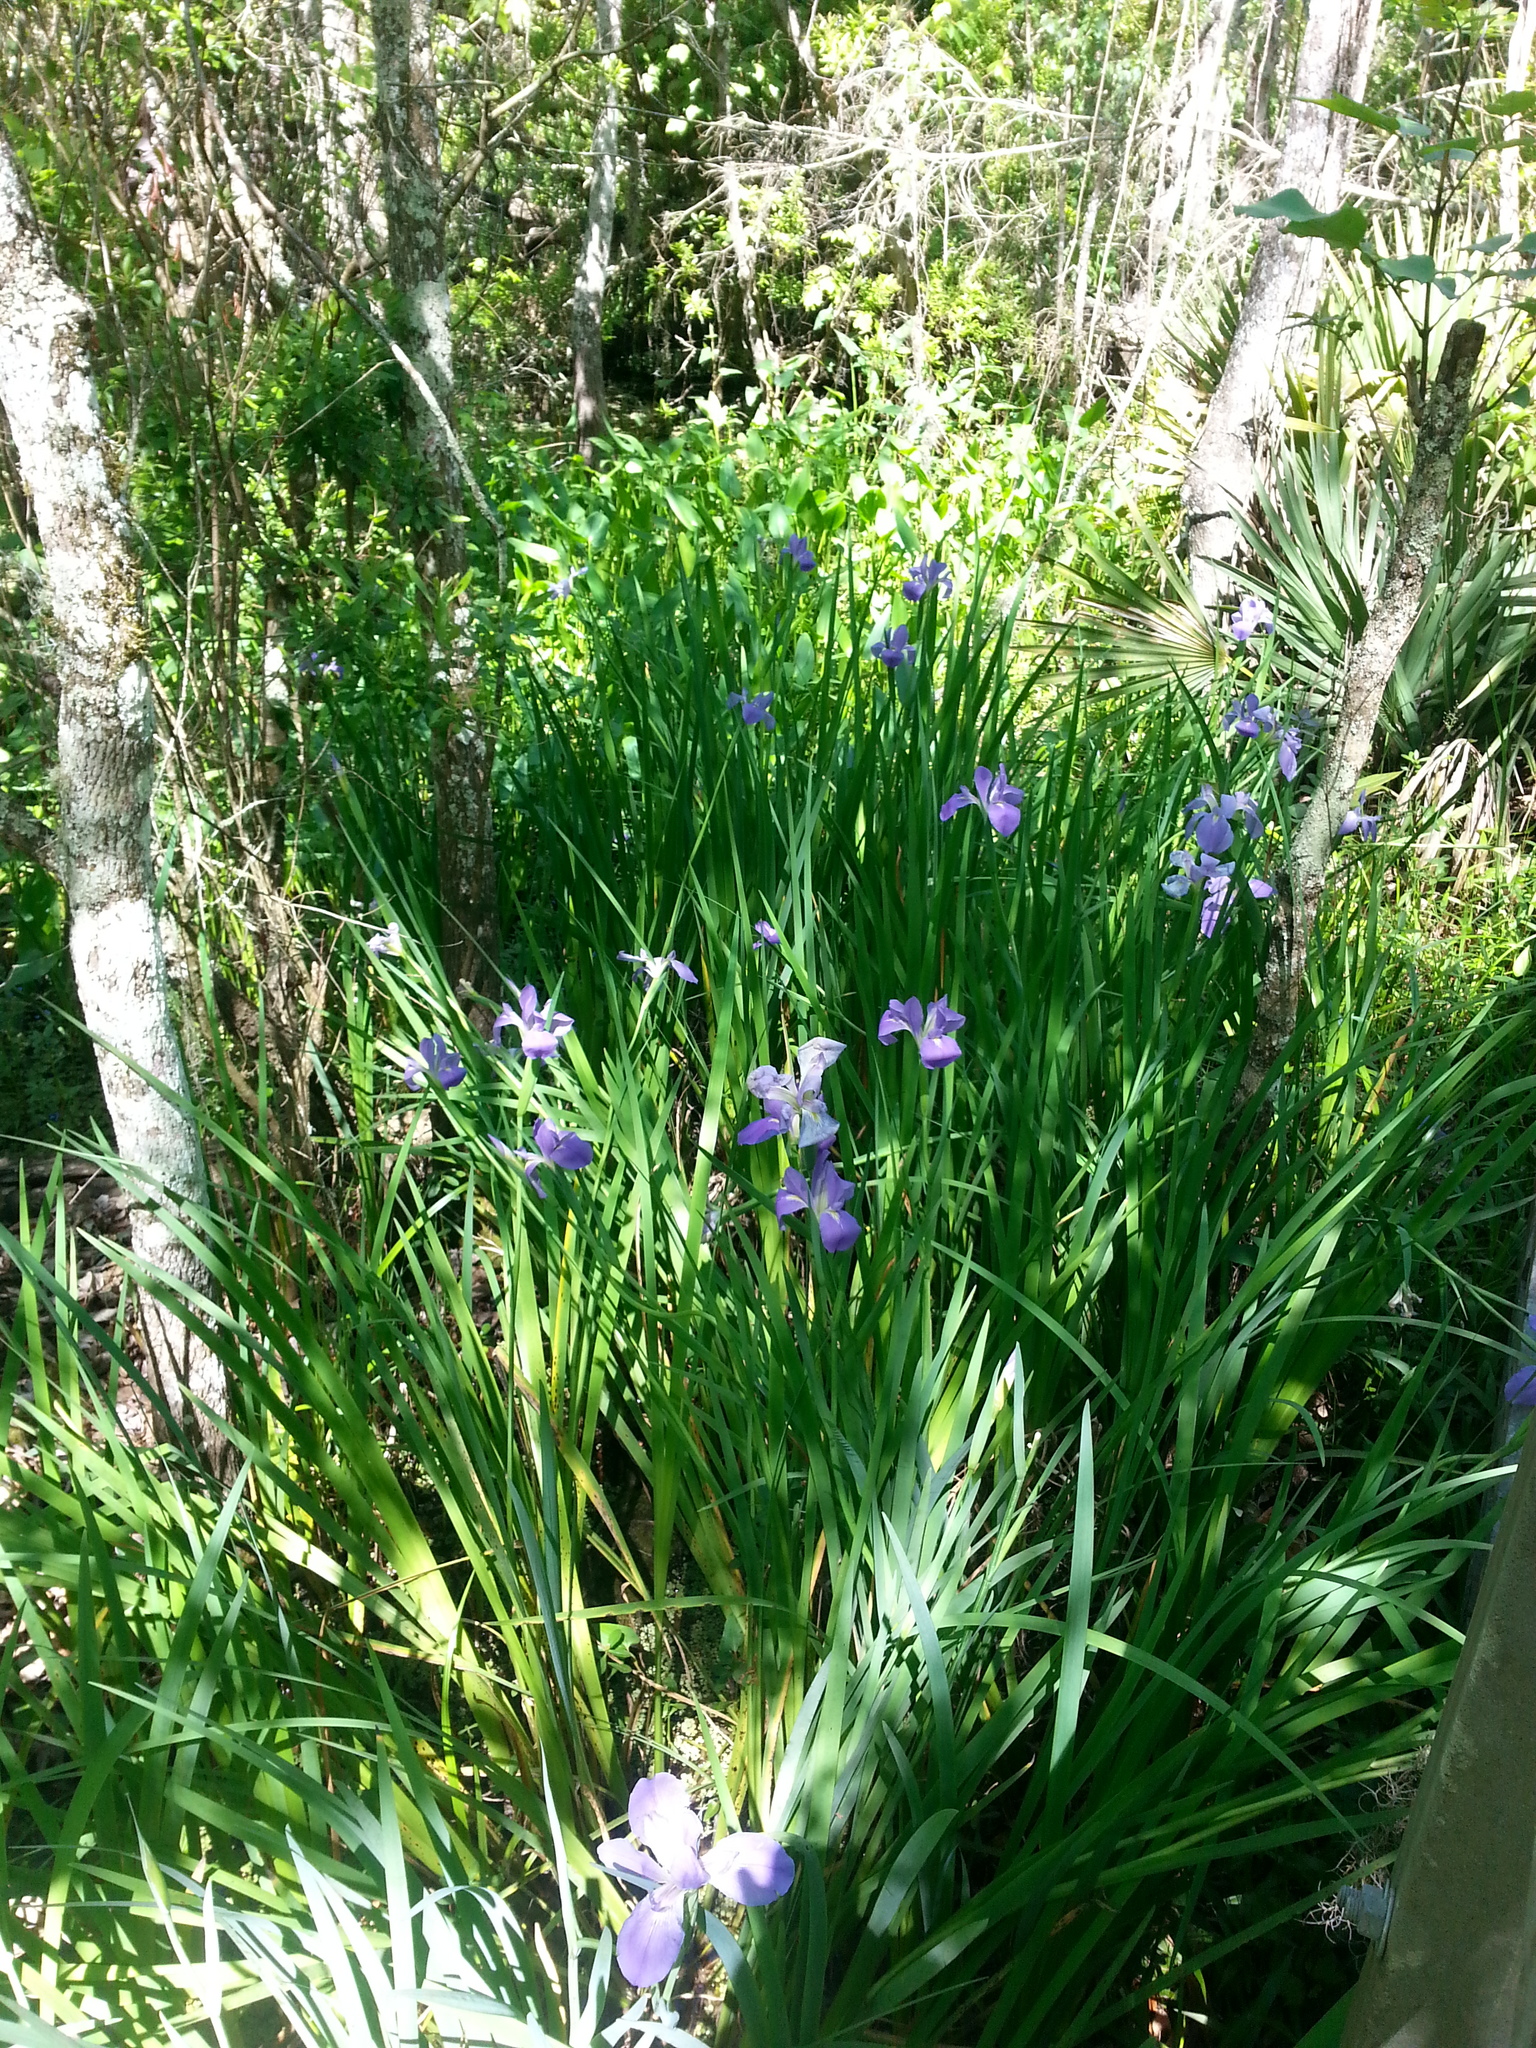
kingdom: Plantae
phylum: Tracheophyta
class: Liliopsida
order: Asparagales
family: Iridaceae
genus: Iris
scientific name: Iris giganticaerulea
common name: Giant blue iris
